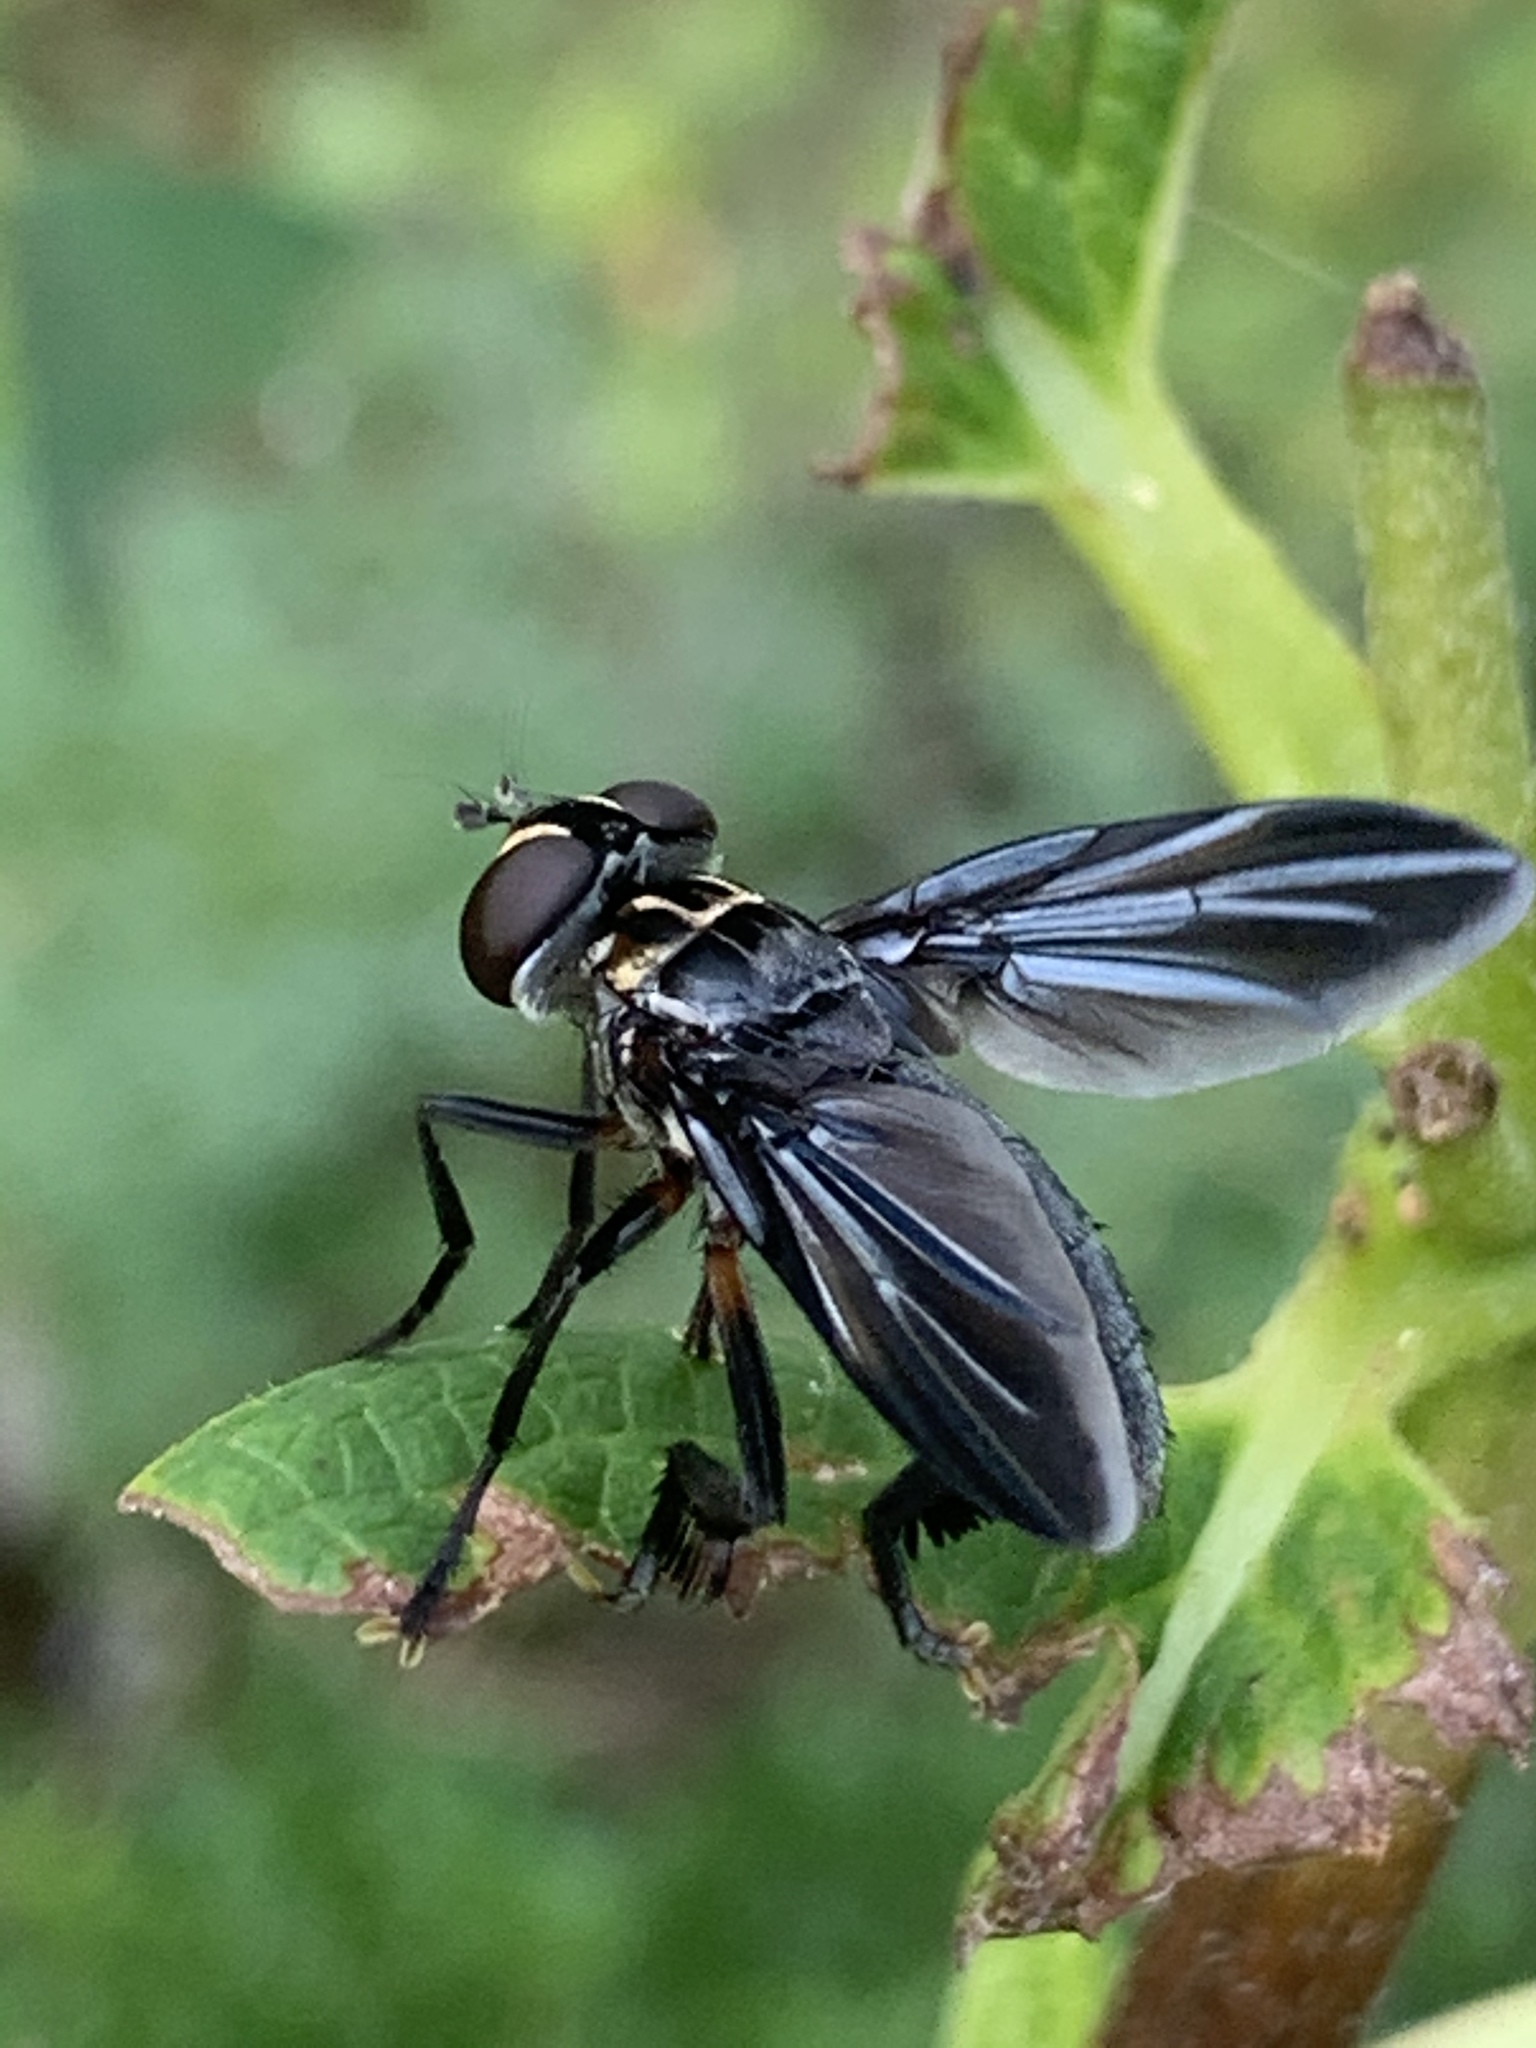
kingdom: Animalia
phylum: Arthropoda
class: Insecta
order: Diptera
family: Tachinidae
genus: Trichopoda
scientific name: Trichopoda lanipes
